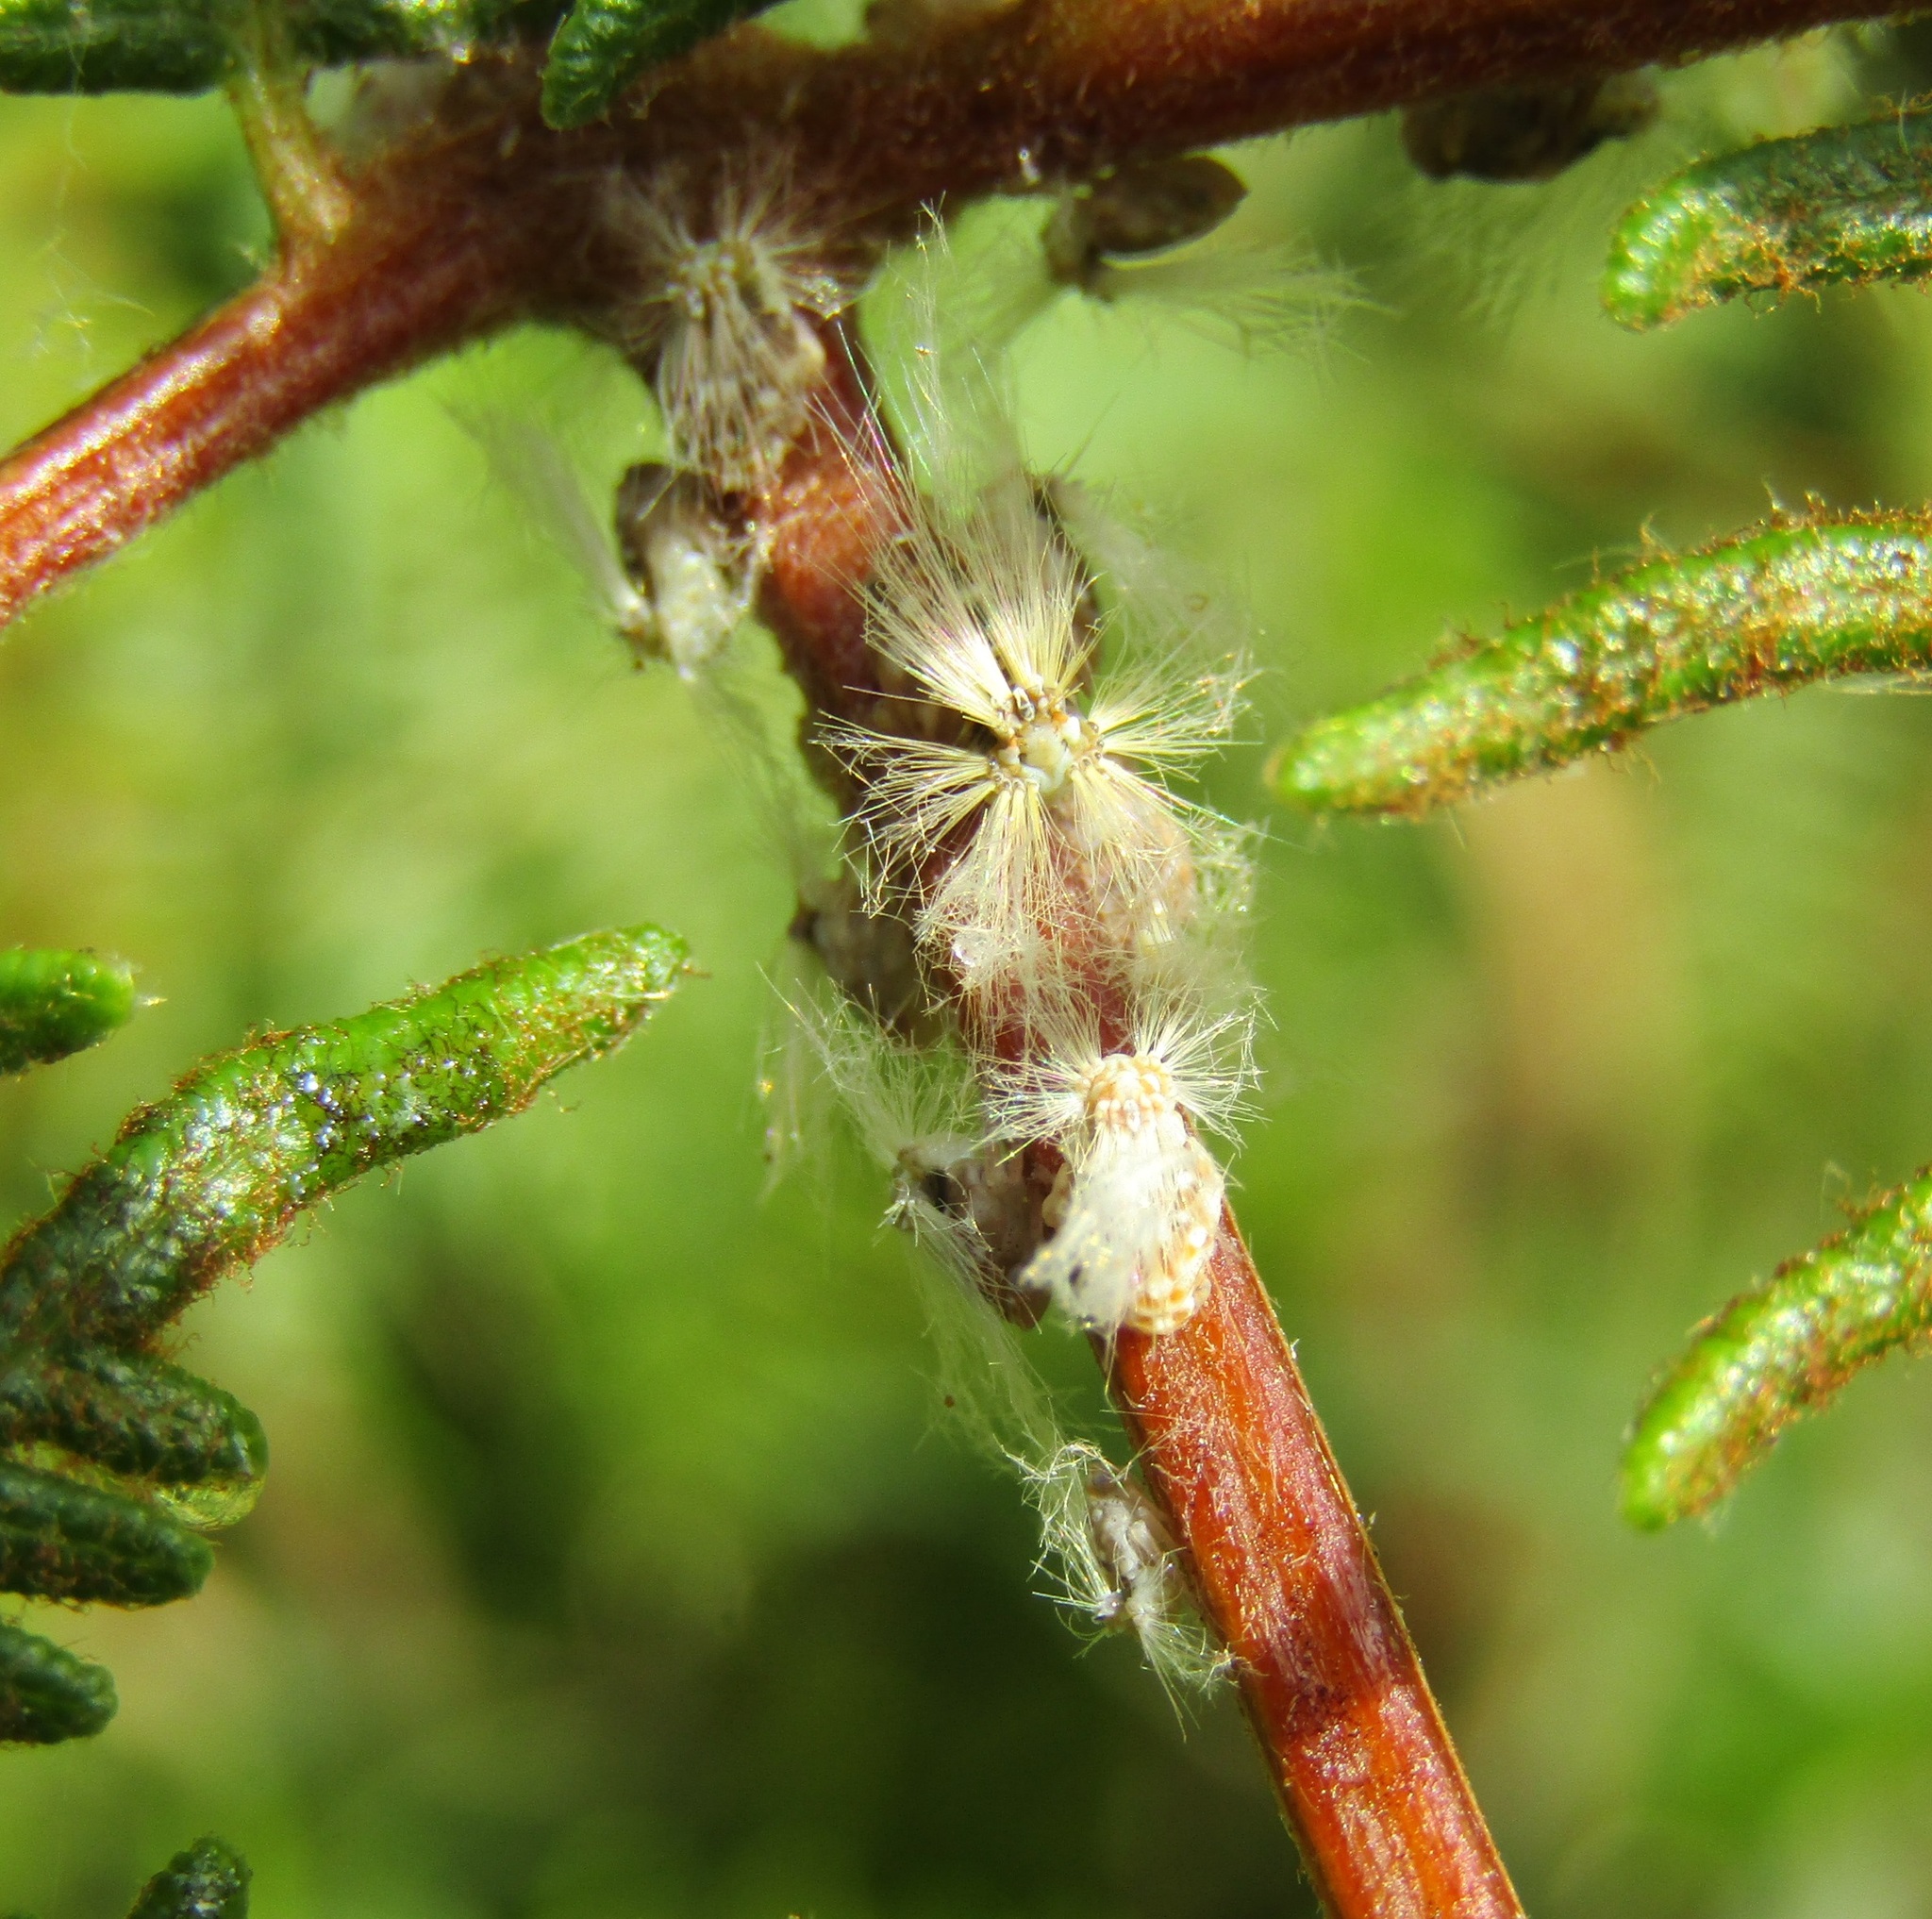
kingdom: Animalia
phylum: Arthropoda
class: Insecta
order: Hemiptera
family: Ricaniidae
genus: Scolypopa
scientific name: Scolypopa australis
